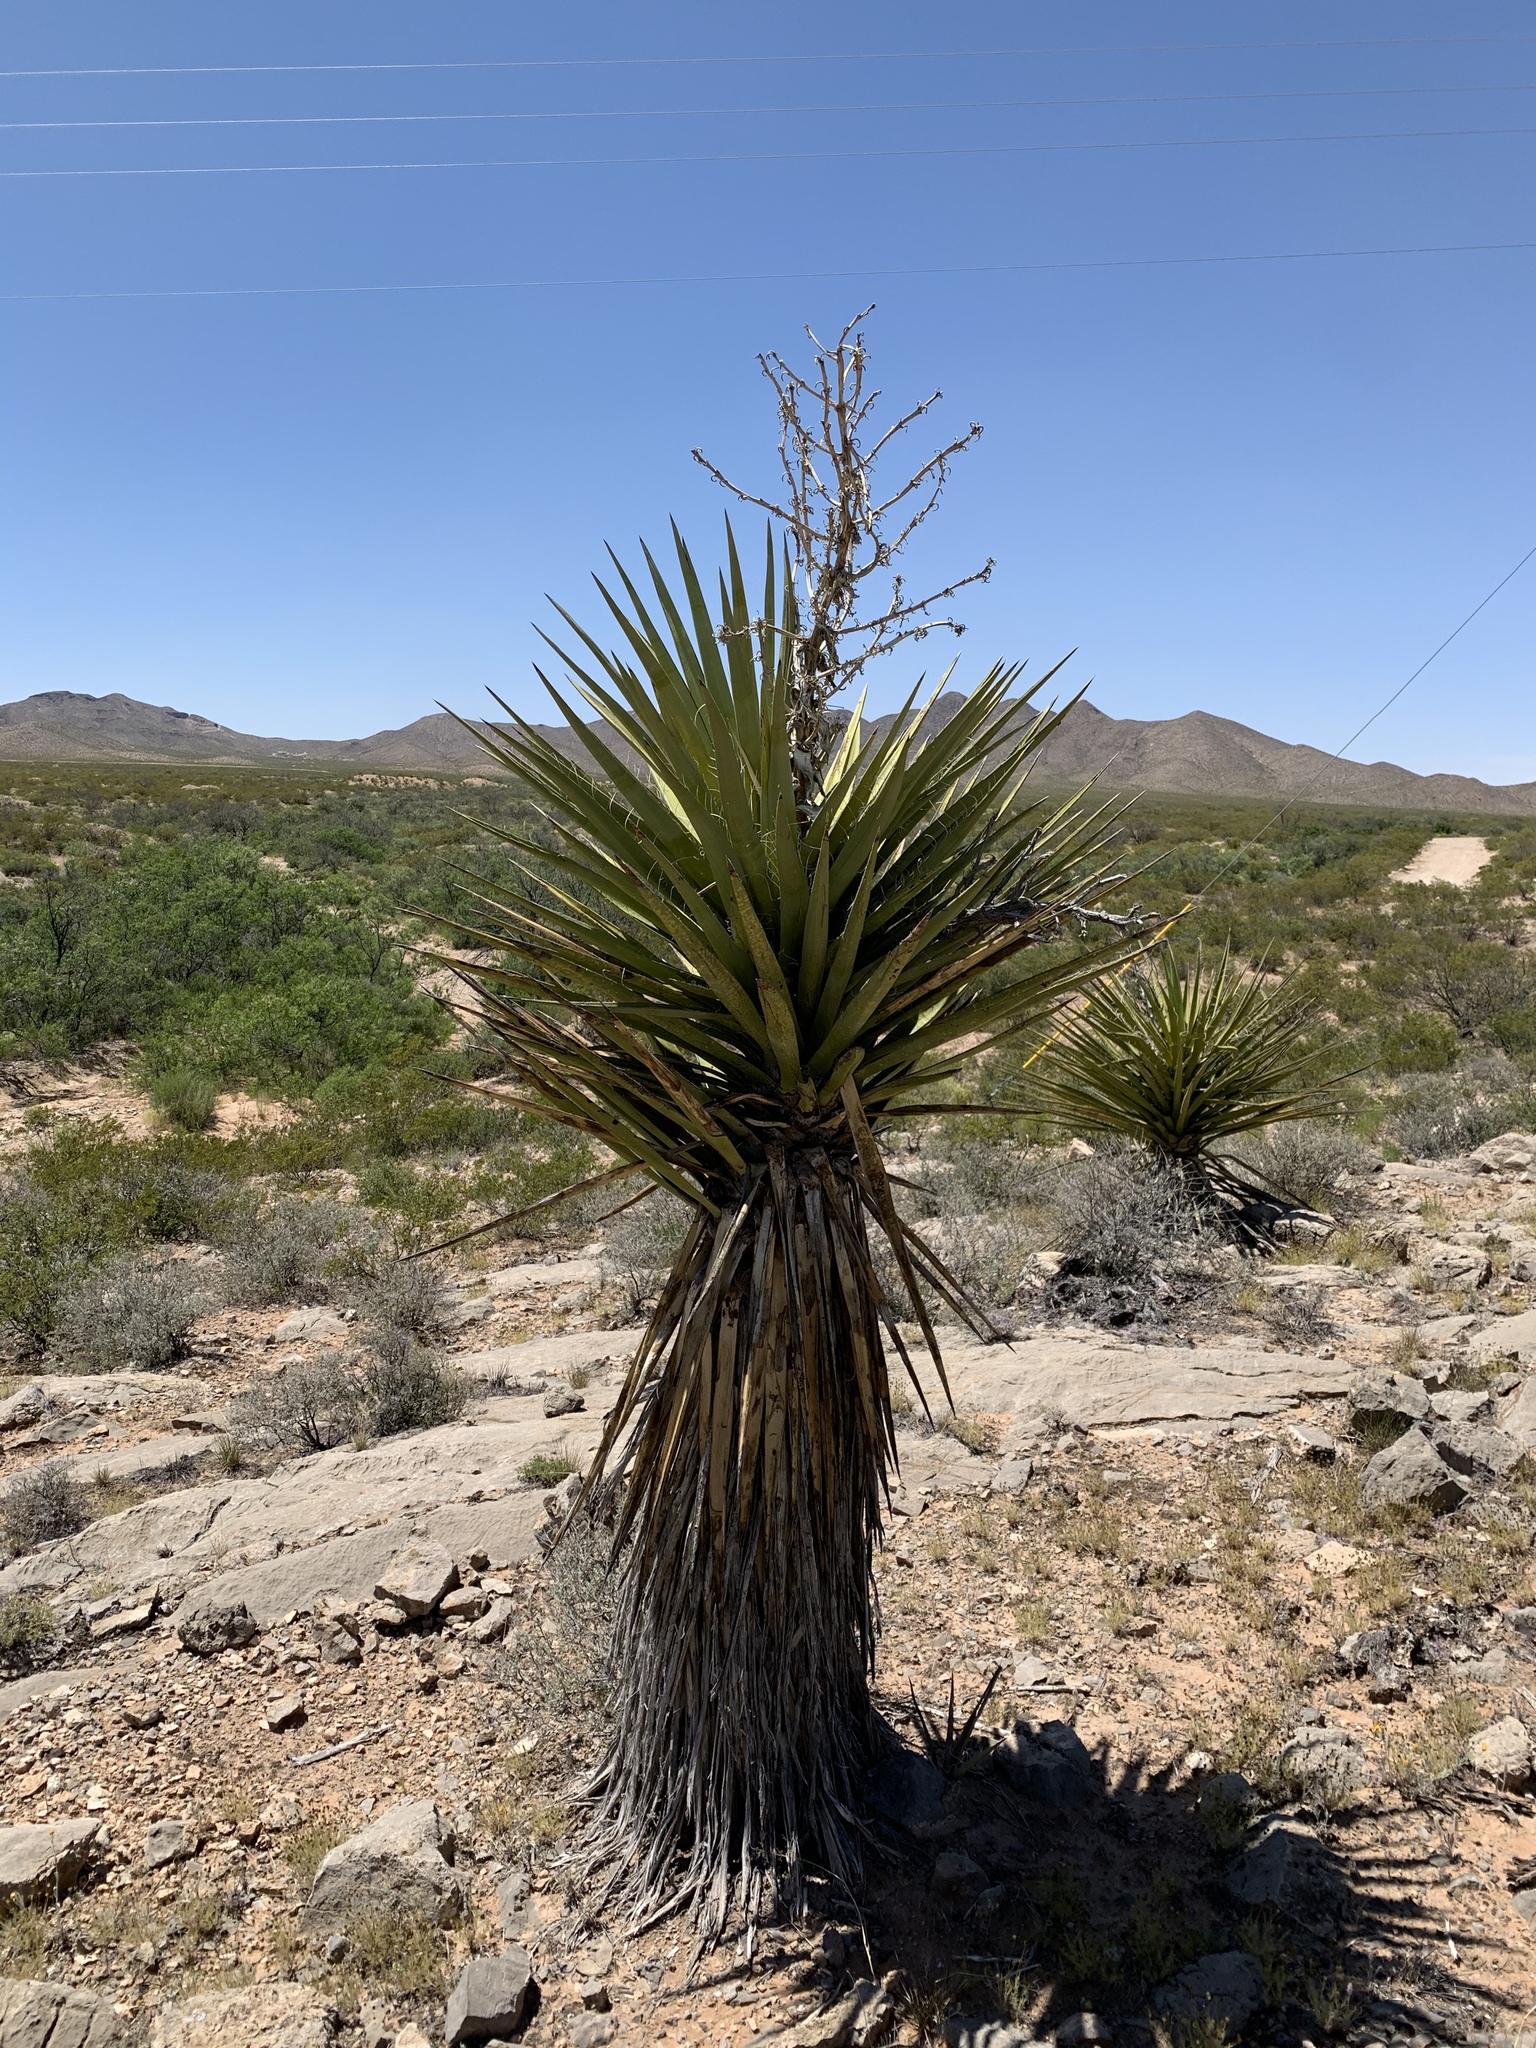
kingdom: Plantae
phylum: Tracheophyta
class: Liliopsida
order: Asparagales
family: Asparagaceae
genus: Yucca
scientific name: Yucca treculiana
